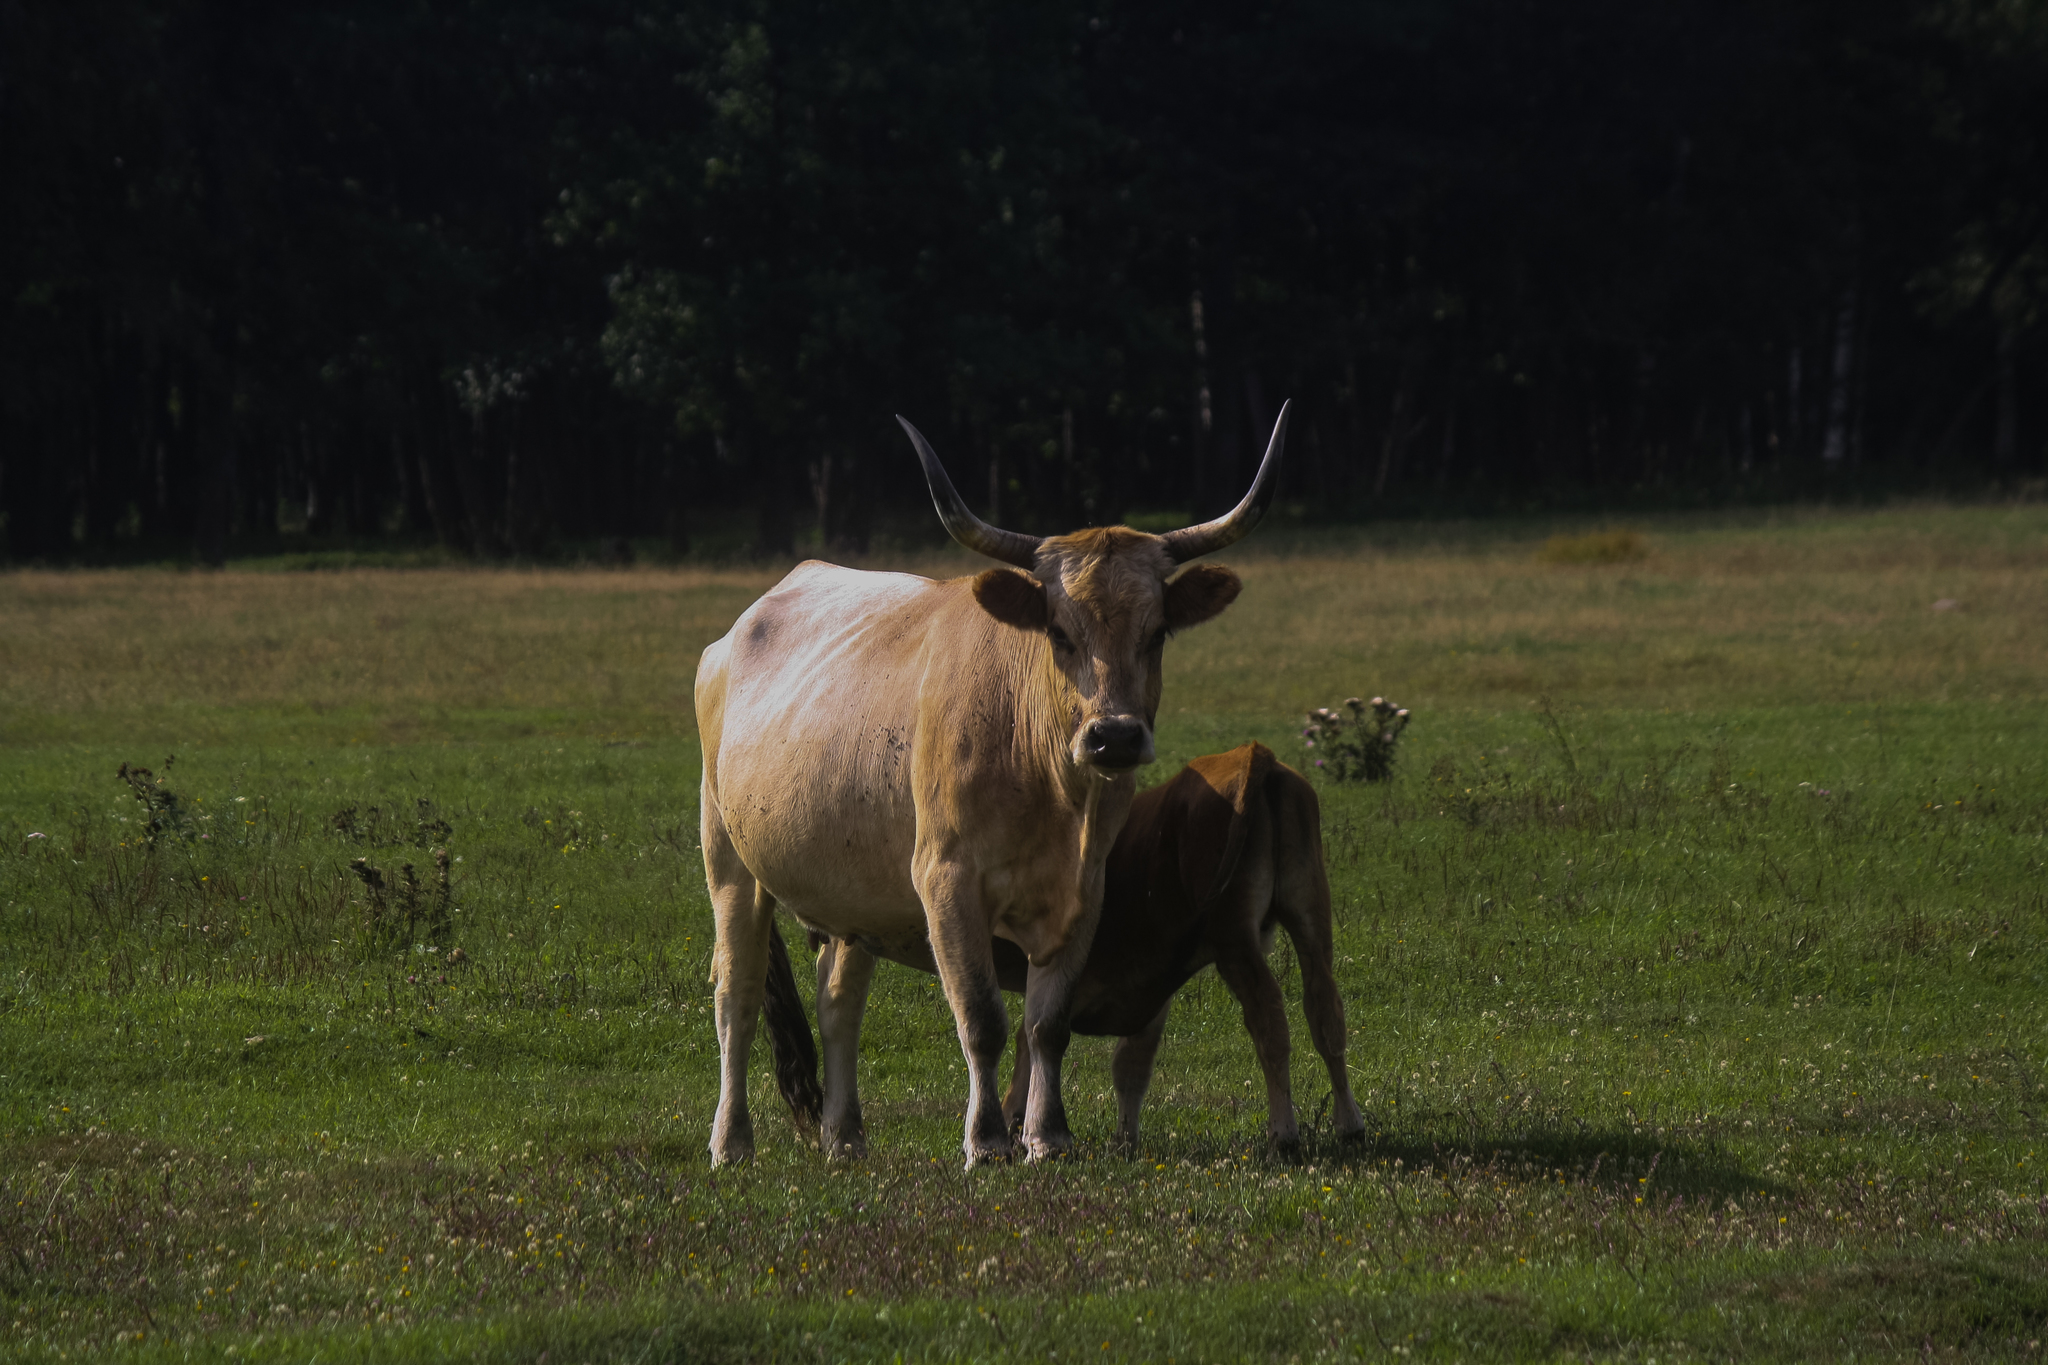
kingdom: Animalia
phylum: Chordata
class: Mammalia
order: Artiodactyla
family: Bovidae
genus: Bos
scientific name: Bos taurus
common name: Domesticated cattle
